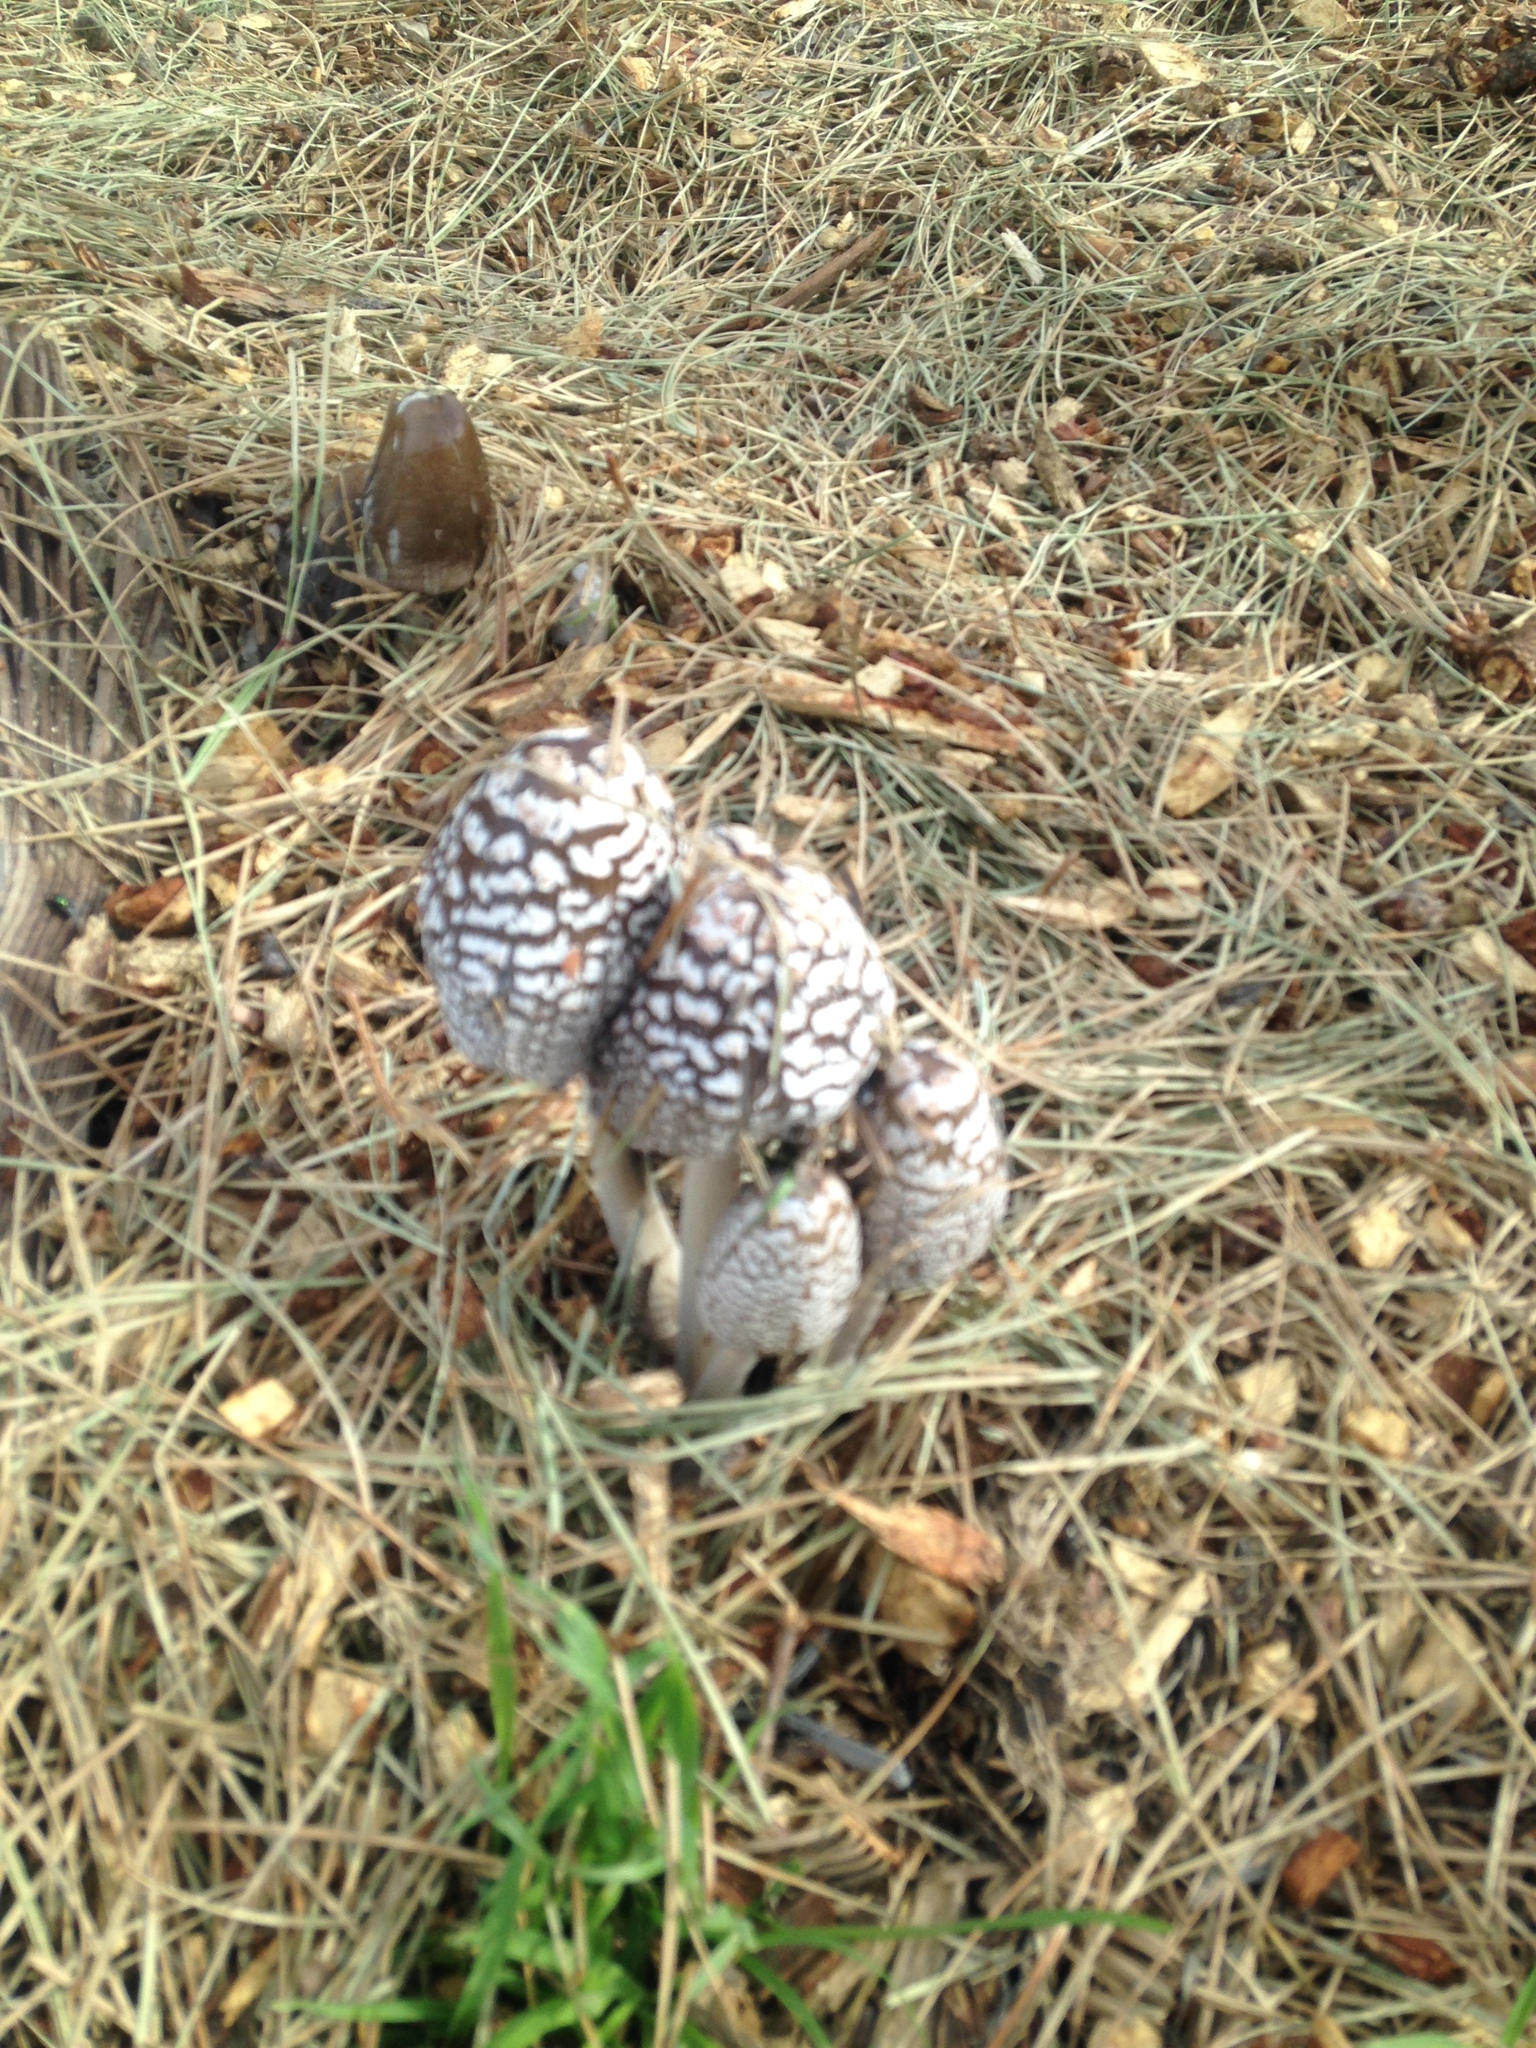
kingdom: Fungi
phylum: Basidiomycota
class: Agaricomycetes
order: Agaricales
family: Psathyrellaceae
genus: Coprinopsis
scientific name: Coprinopsis picacea
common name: Magpie inkcap
